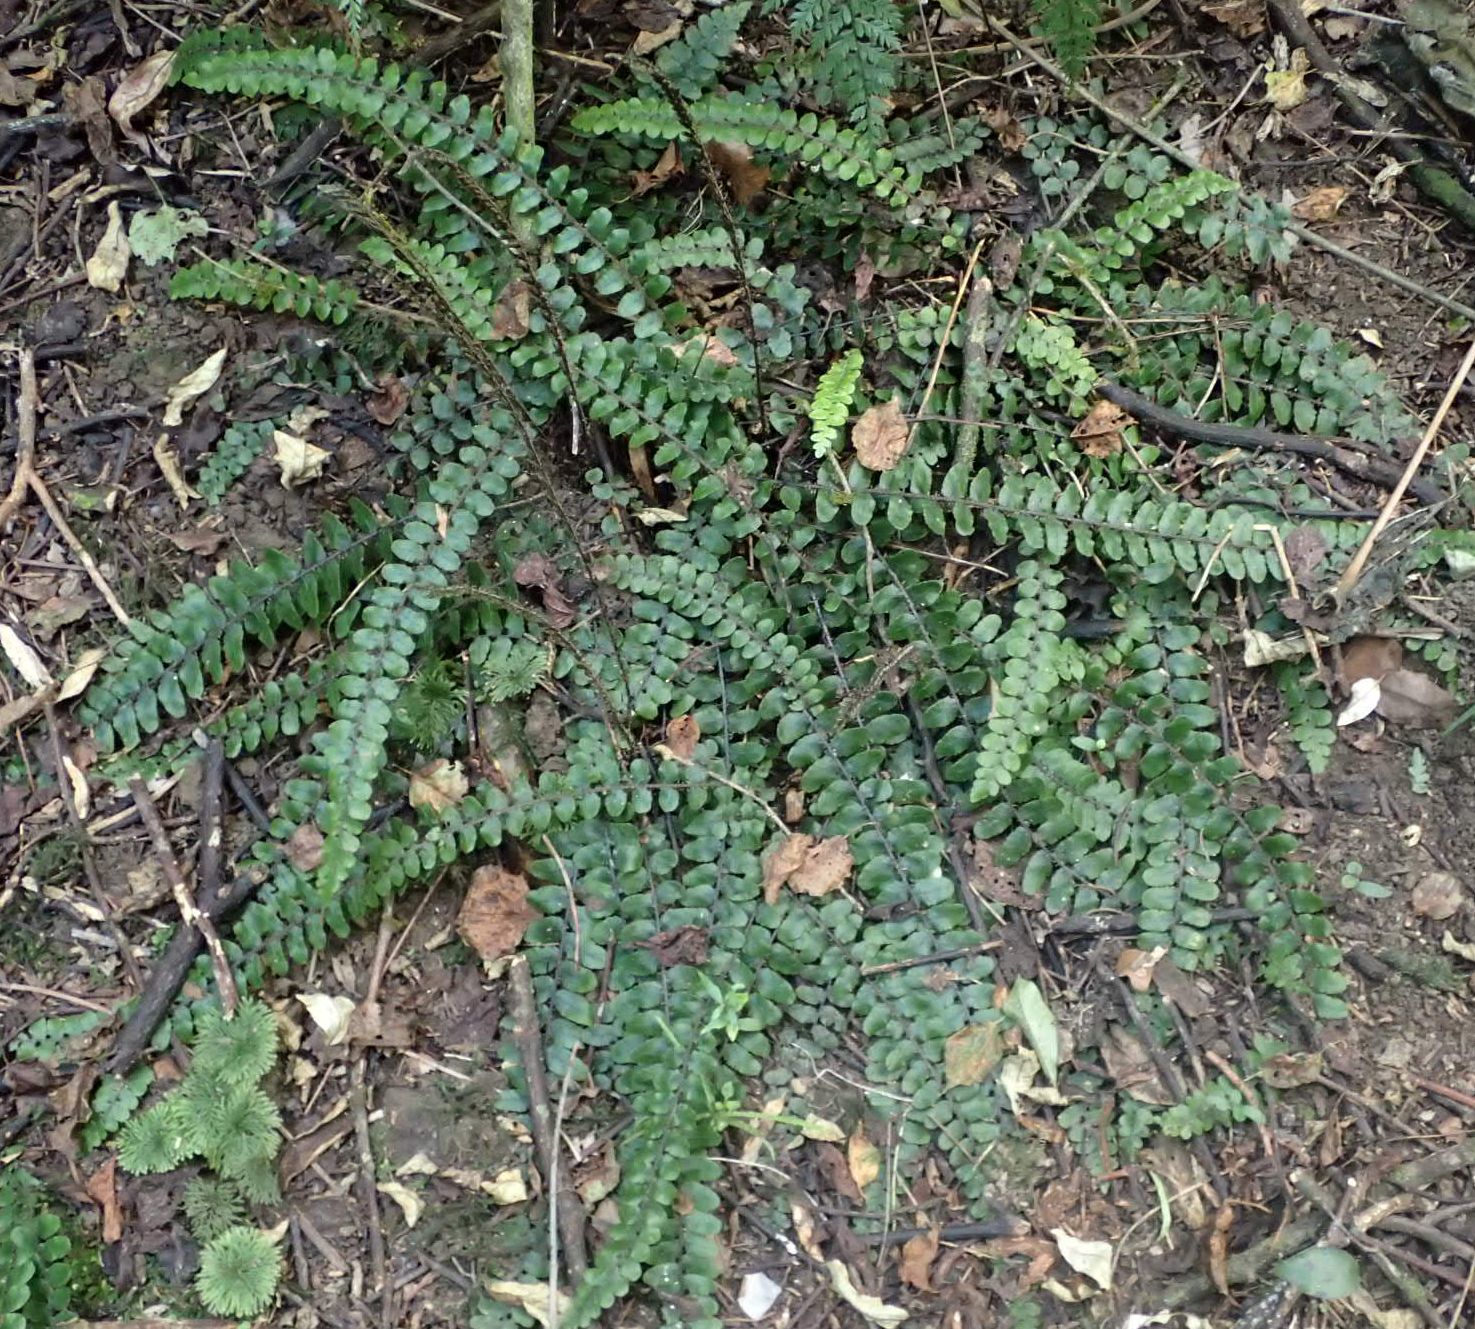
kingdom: Plantae
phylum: Tracheophyta
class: Polypodiopsida
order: Polypodiales
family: Blechnaceae
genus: Cranfillia
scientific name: Cranfillia fluviatilis
